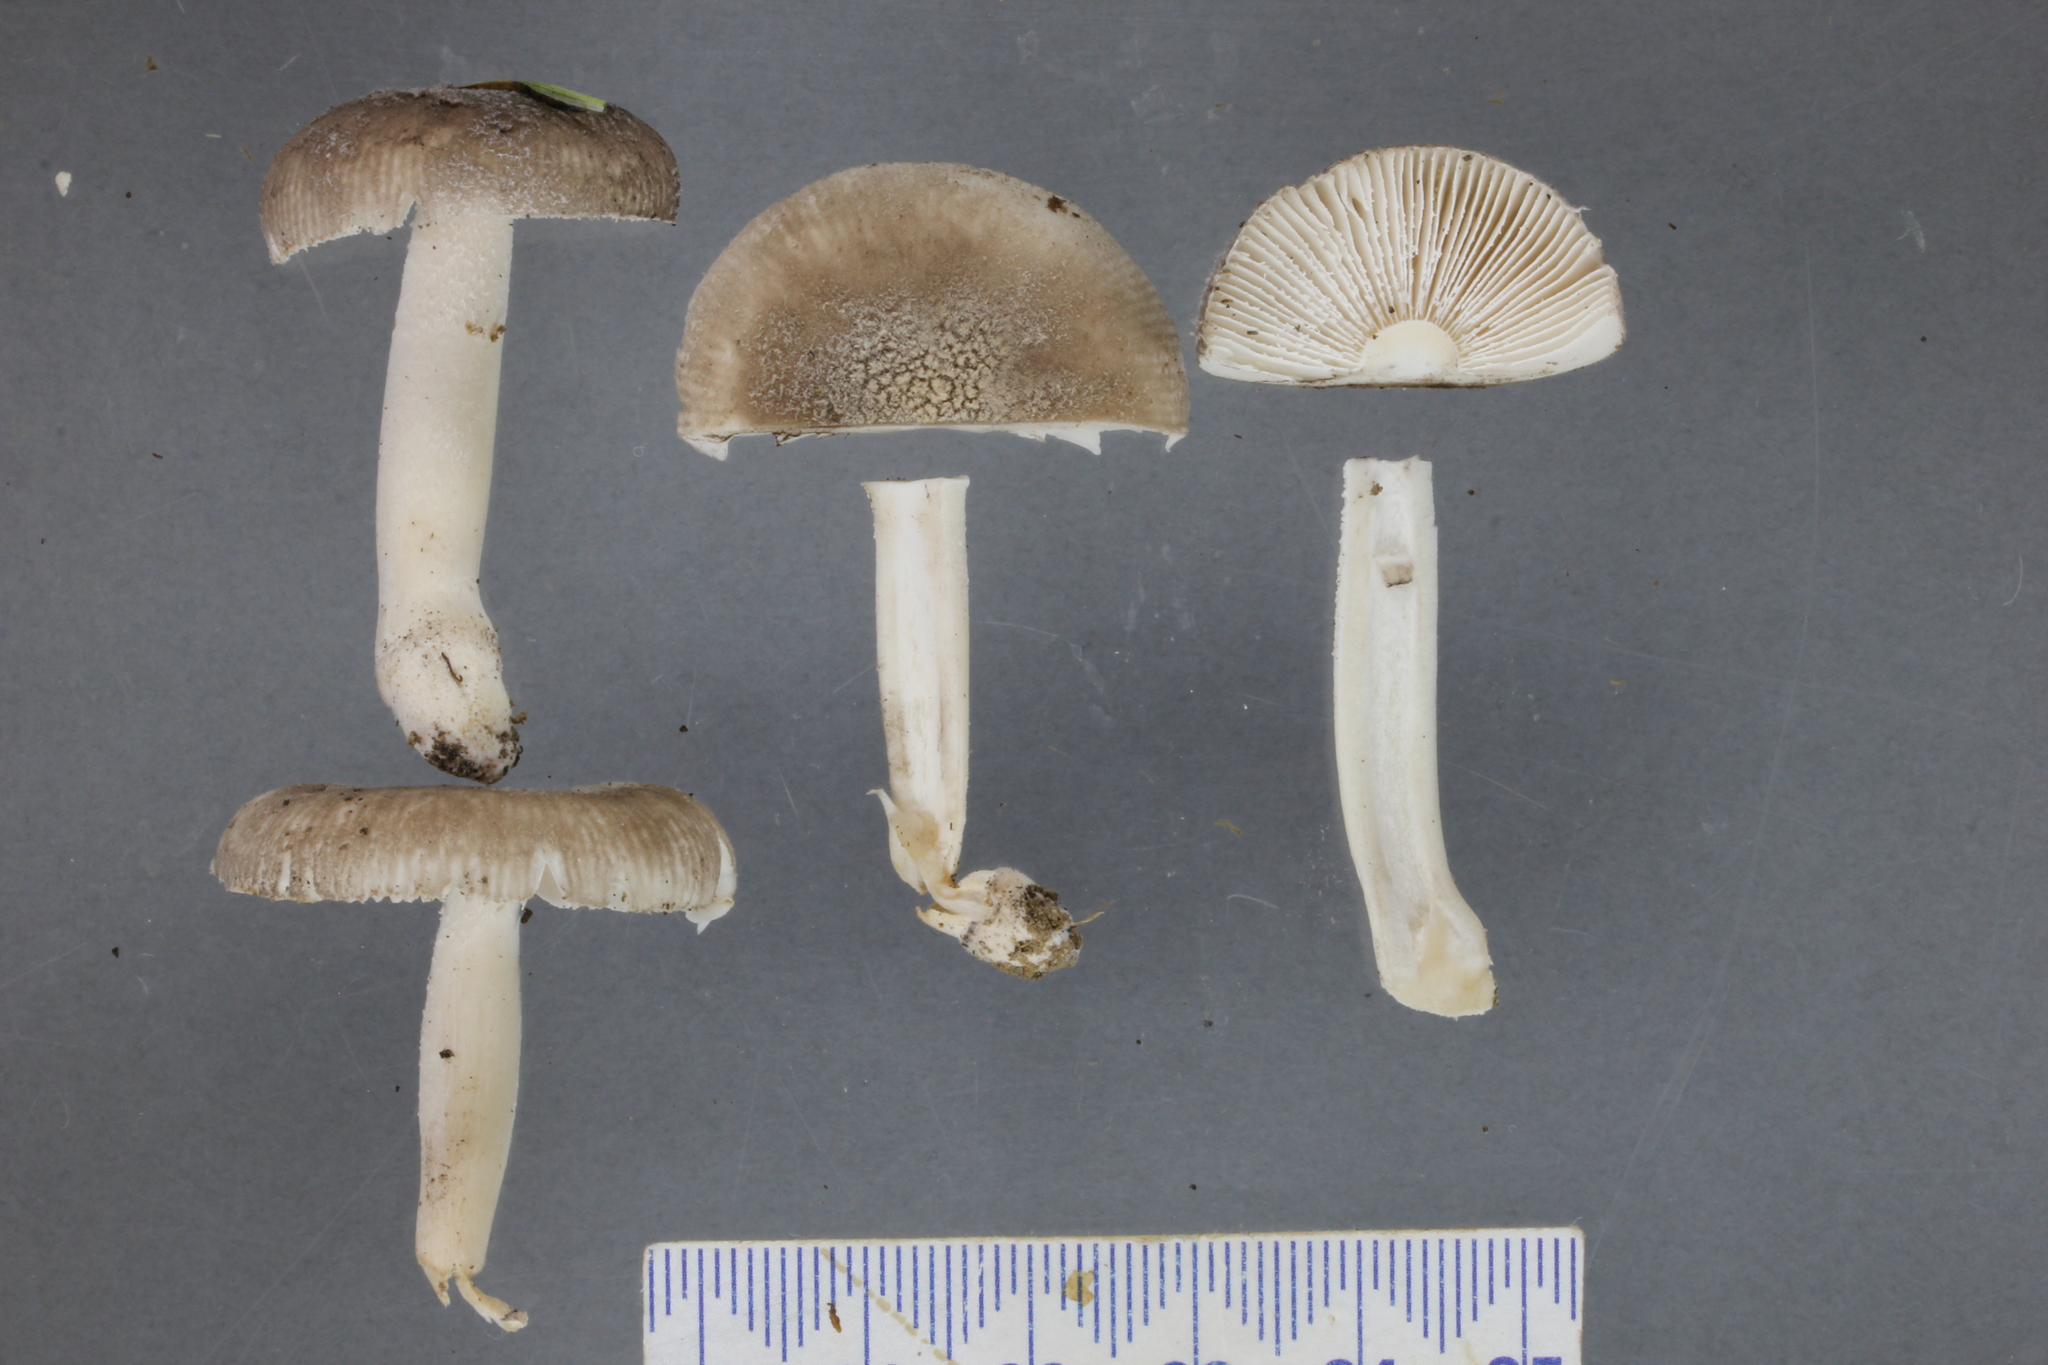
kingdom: Fungi
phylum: Basidiomycota
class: Agaricomycetes
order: Agaricales
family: Amanitaceae
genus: Amanita
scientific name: Amanita nehuta
